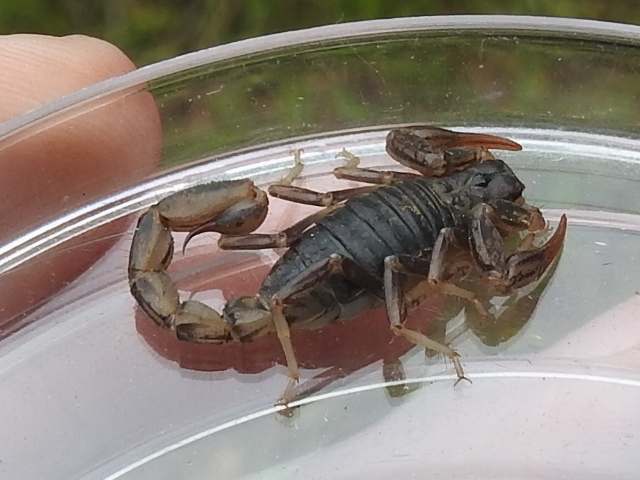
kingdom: Animalia
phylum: Arthropoda
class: Arachnida
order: Scorpiones
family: Vaejovidae
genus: Paruroctonus
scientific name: Paruroctonus silvestrii
